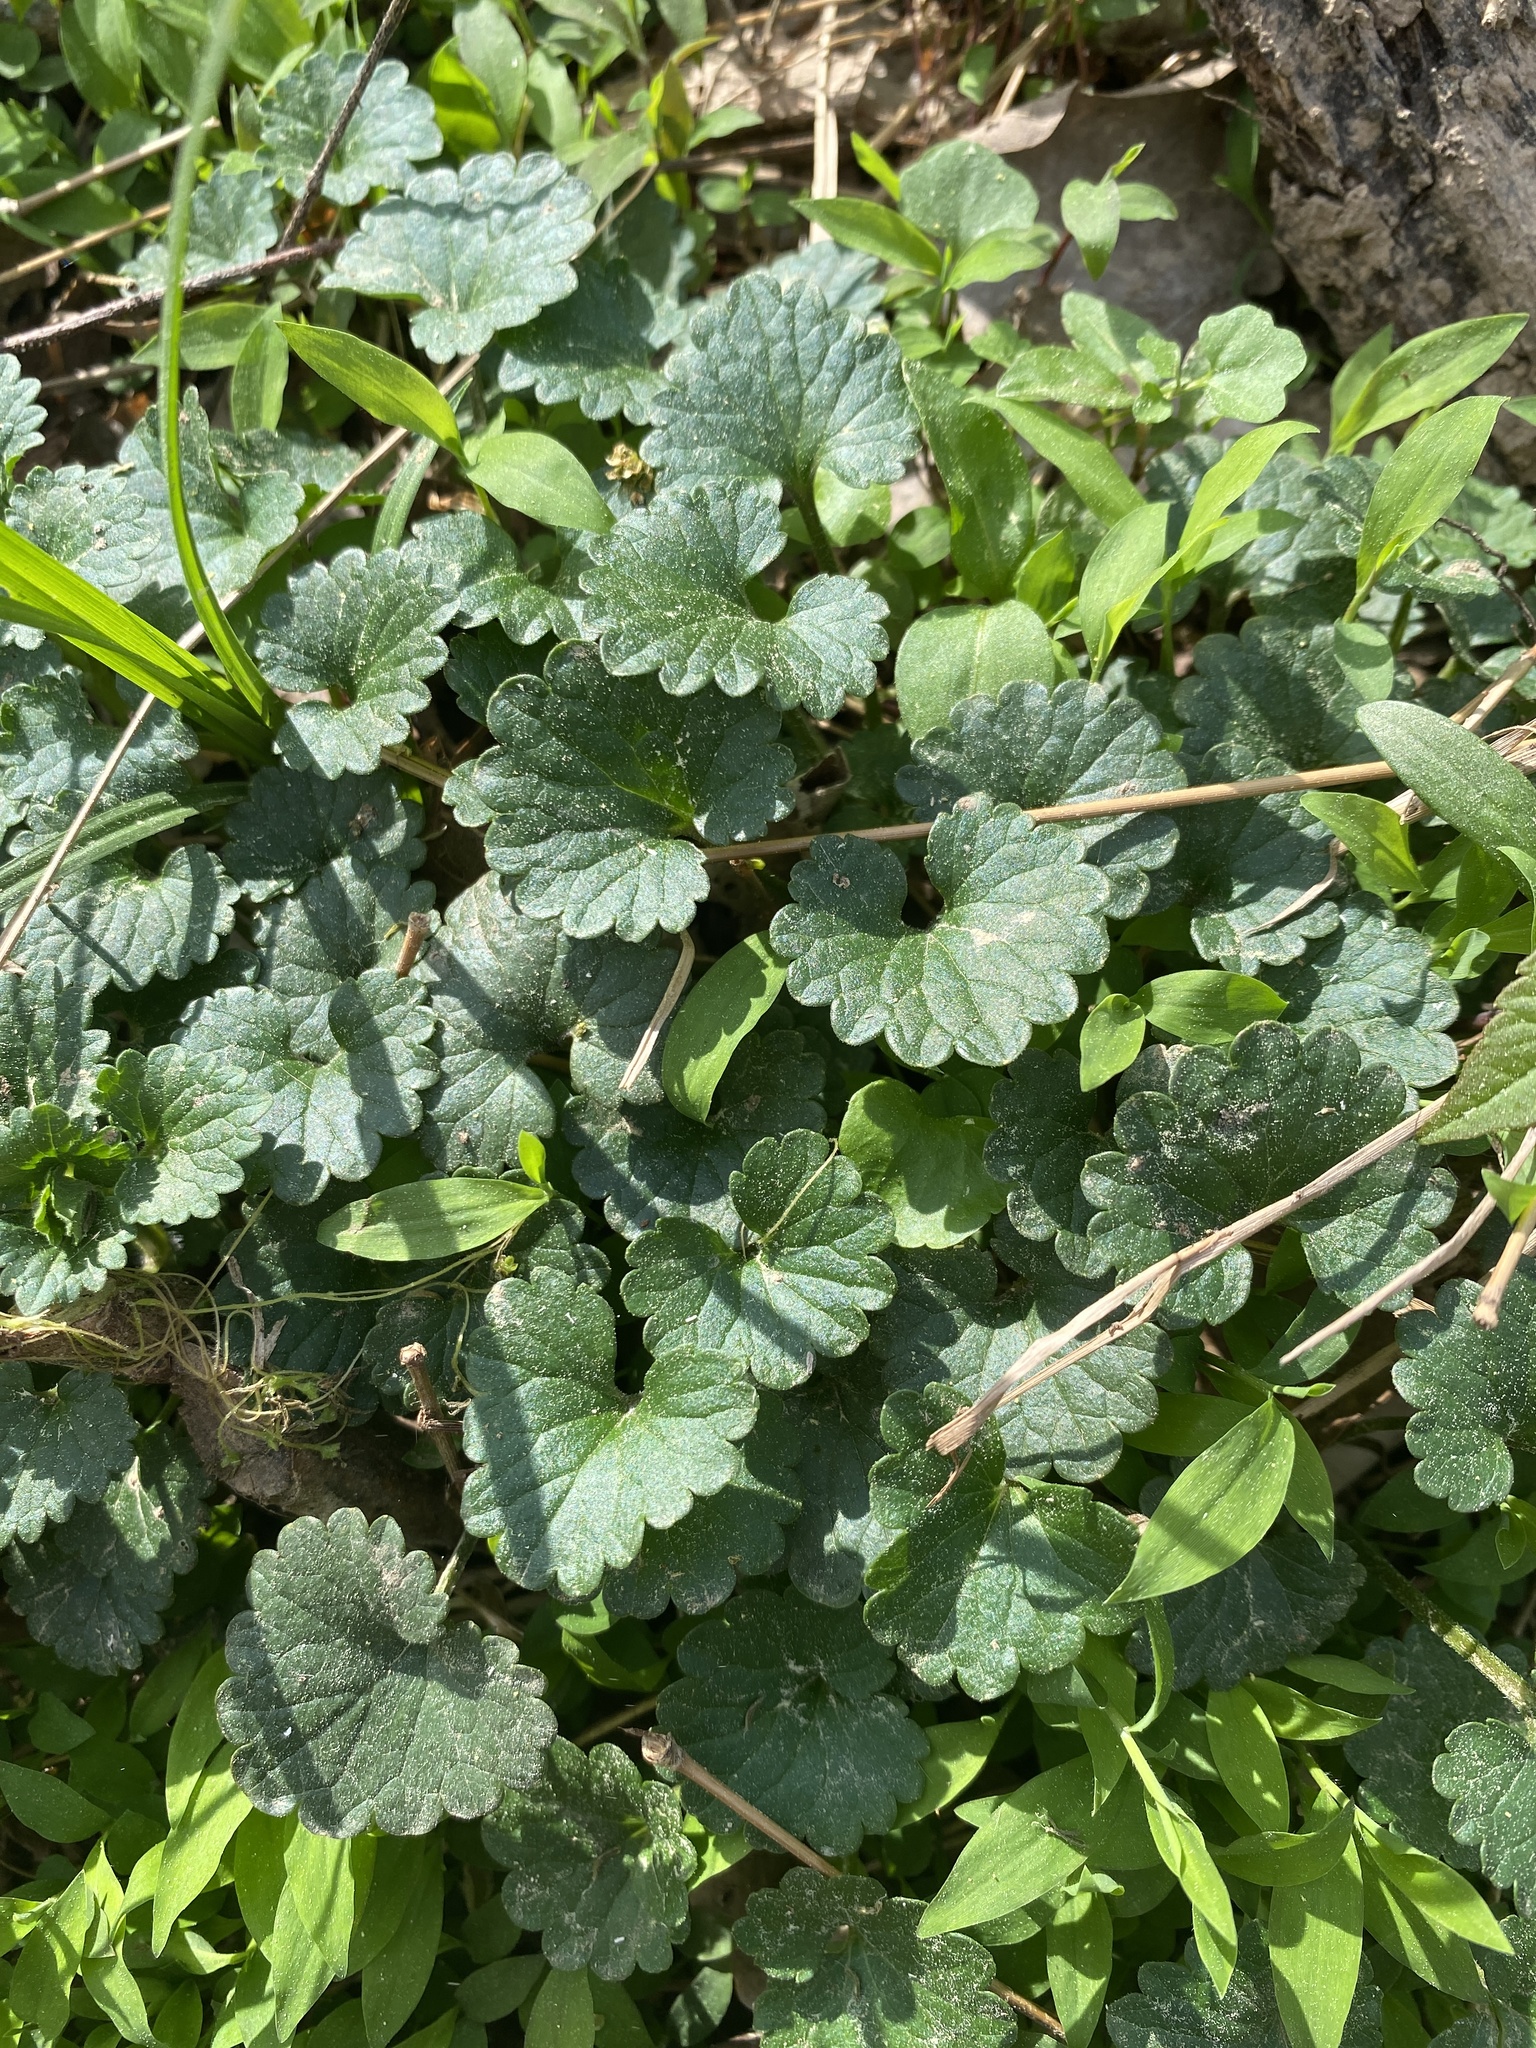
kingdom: Plantae
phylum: Tracheophyta
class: Magnoliopsida
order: Lamiales
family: Lamiaceae
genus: Glechoma
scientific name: Glechoma hederacea
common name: Ground ivy
